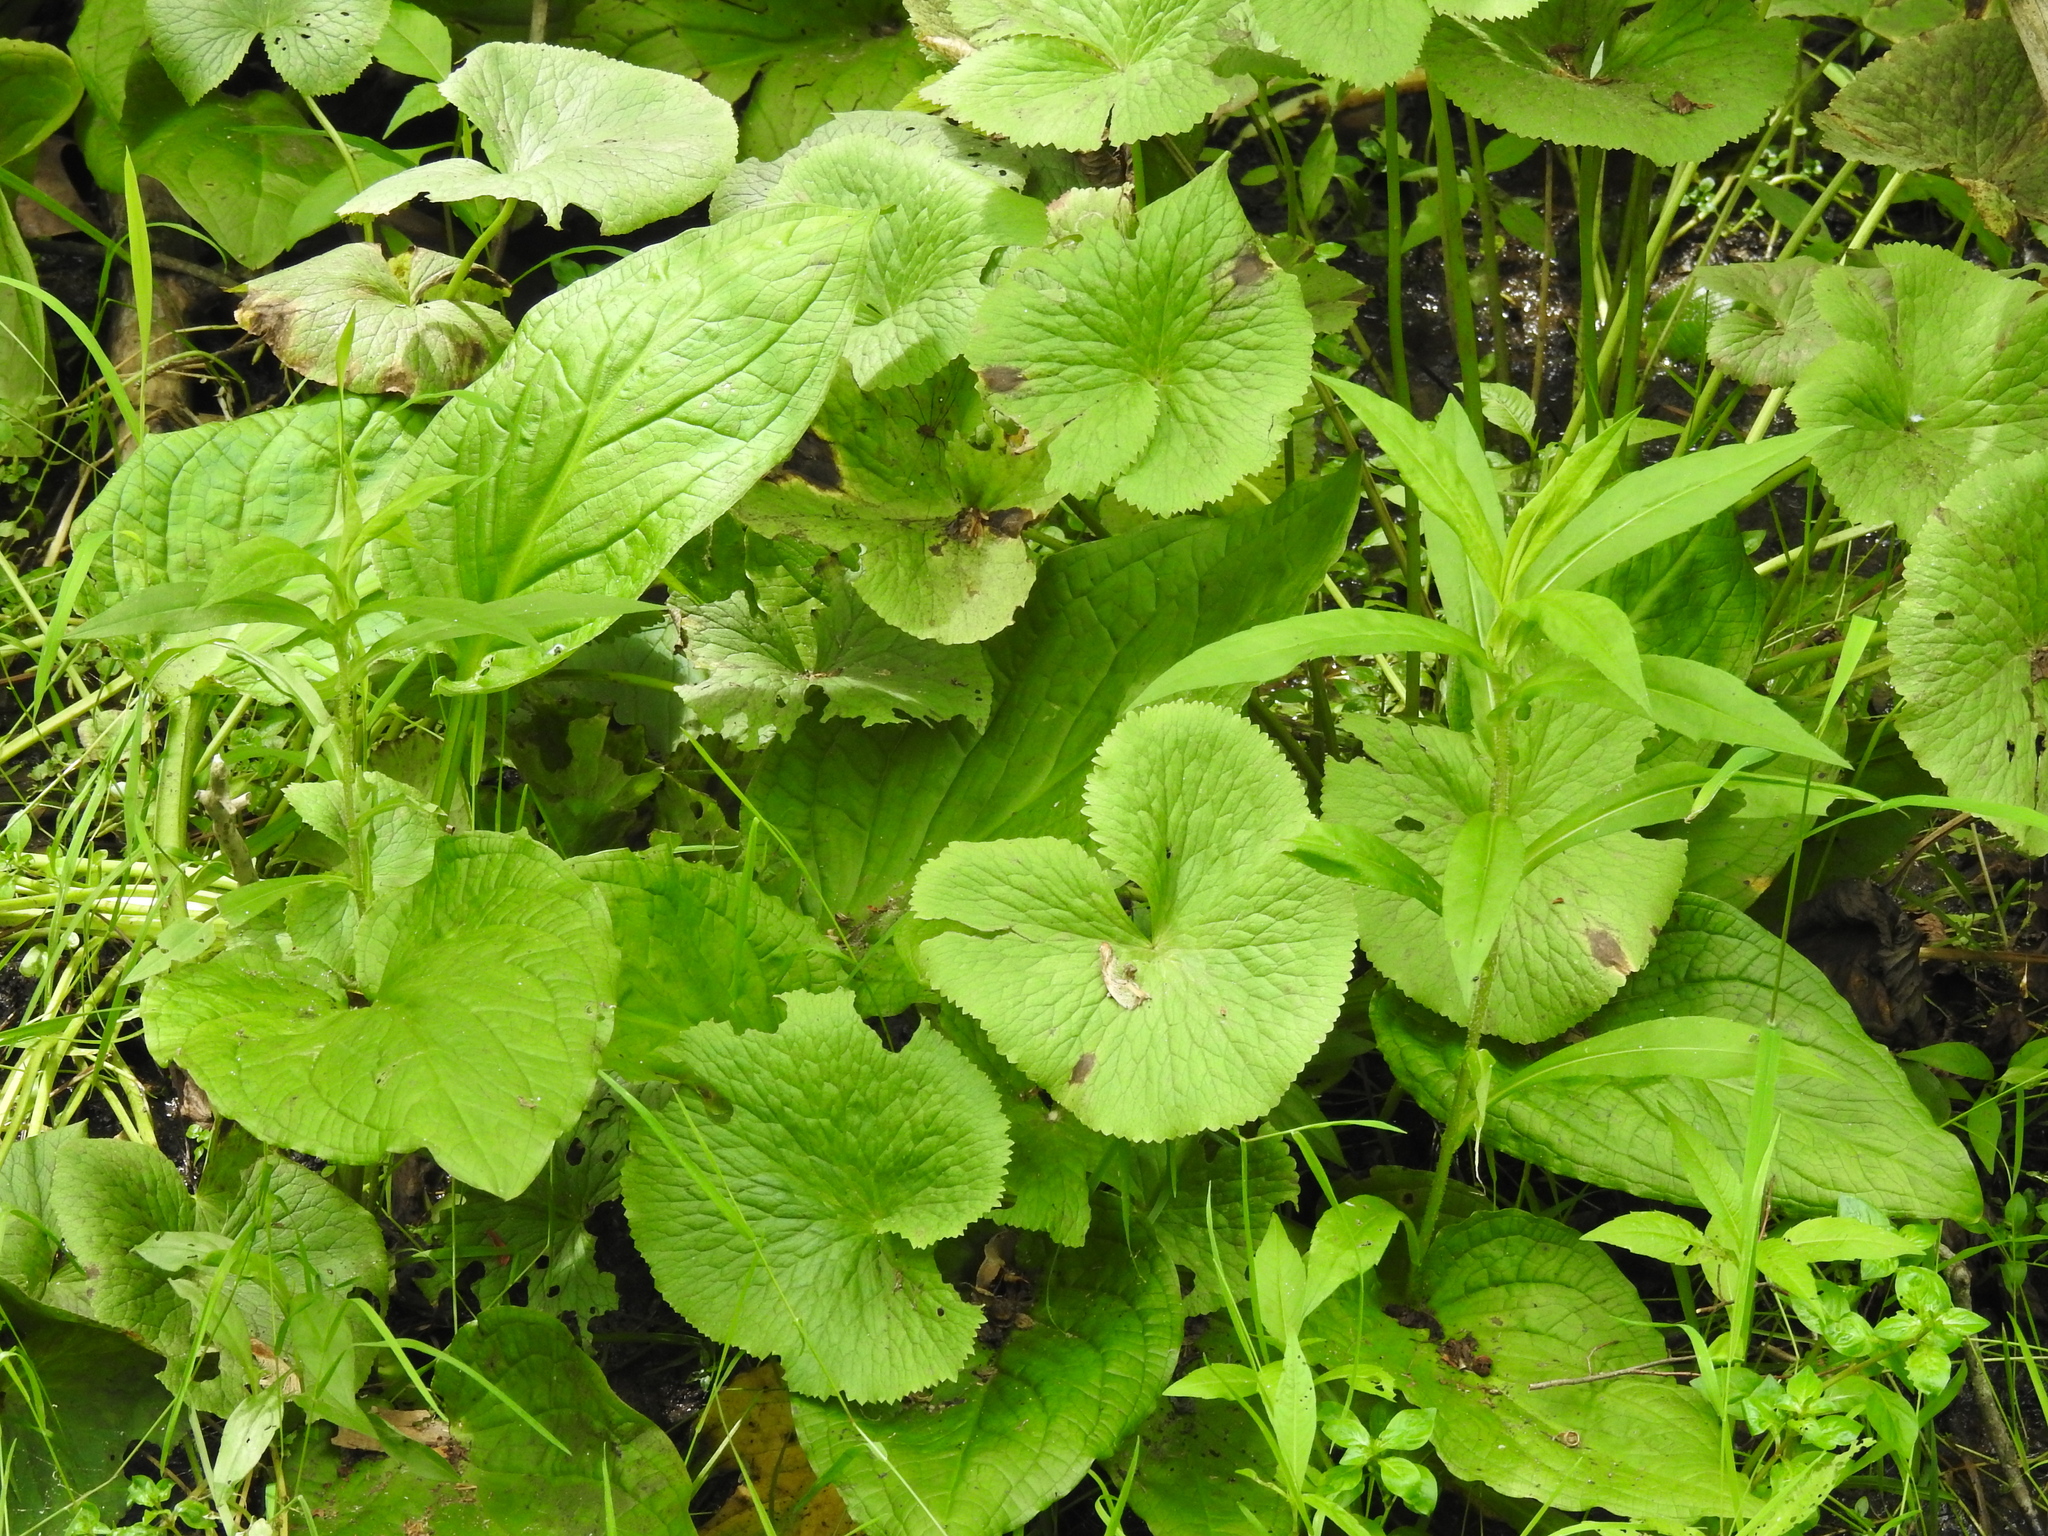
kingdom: Plantae
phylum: Tracheophyta
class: Magnoliopsida
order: Ranunculales
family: Ranunculaceae
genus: Caltha
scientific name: Caltha palustris
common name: Marsh marigold
